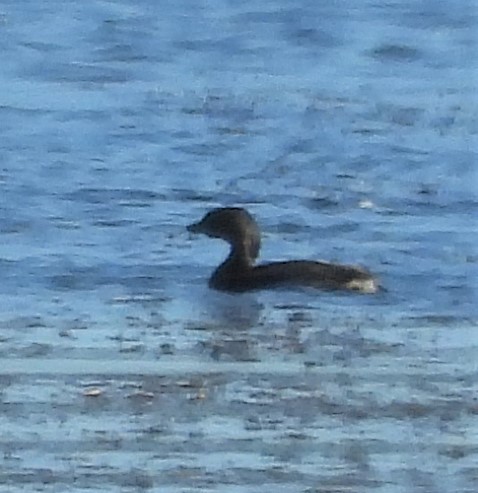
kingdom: Animalia
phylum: Chordata
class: Aves
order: Podicipediformes
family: Podicipedidae
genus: Podilymbus
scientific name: Podilymbus podiceps
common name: Pied-billed grebe
